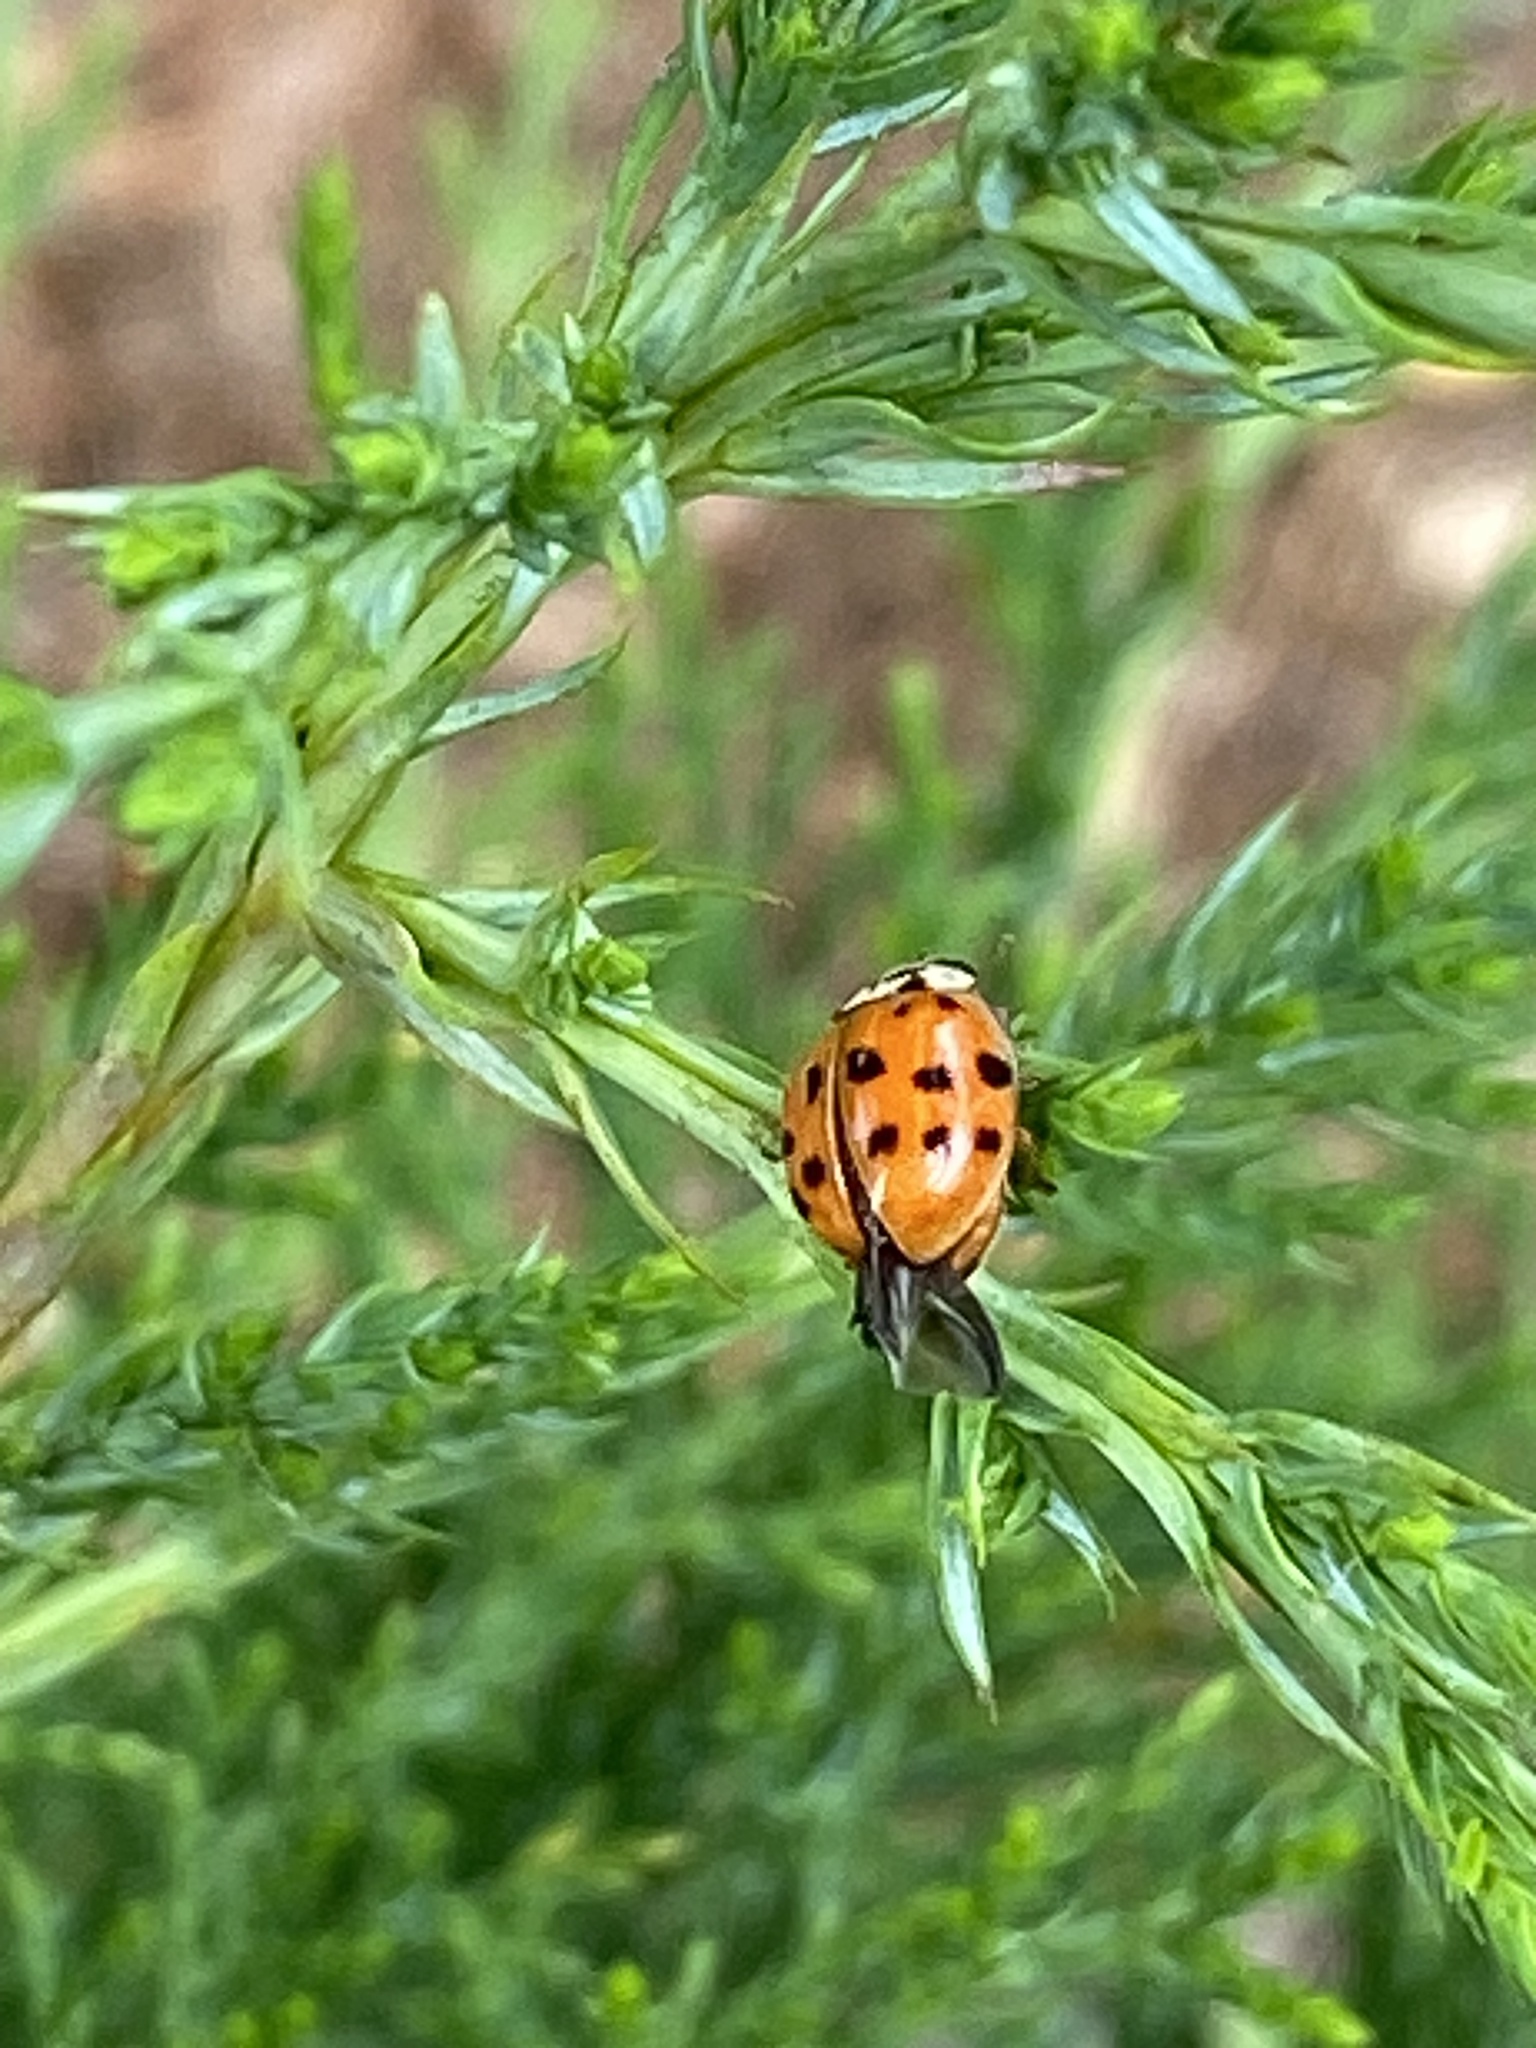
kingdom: Animalia
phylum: Arthropoda
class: Insecta
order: Coleoptera
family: Coccinellidae
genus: Harmonia
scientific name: Harmonia axyridis
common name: Harlequin ladybird
